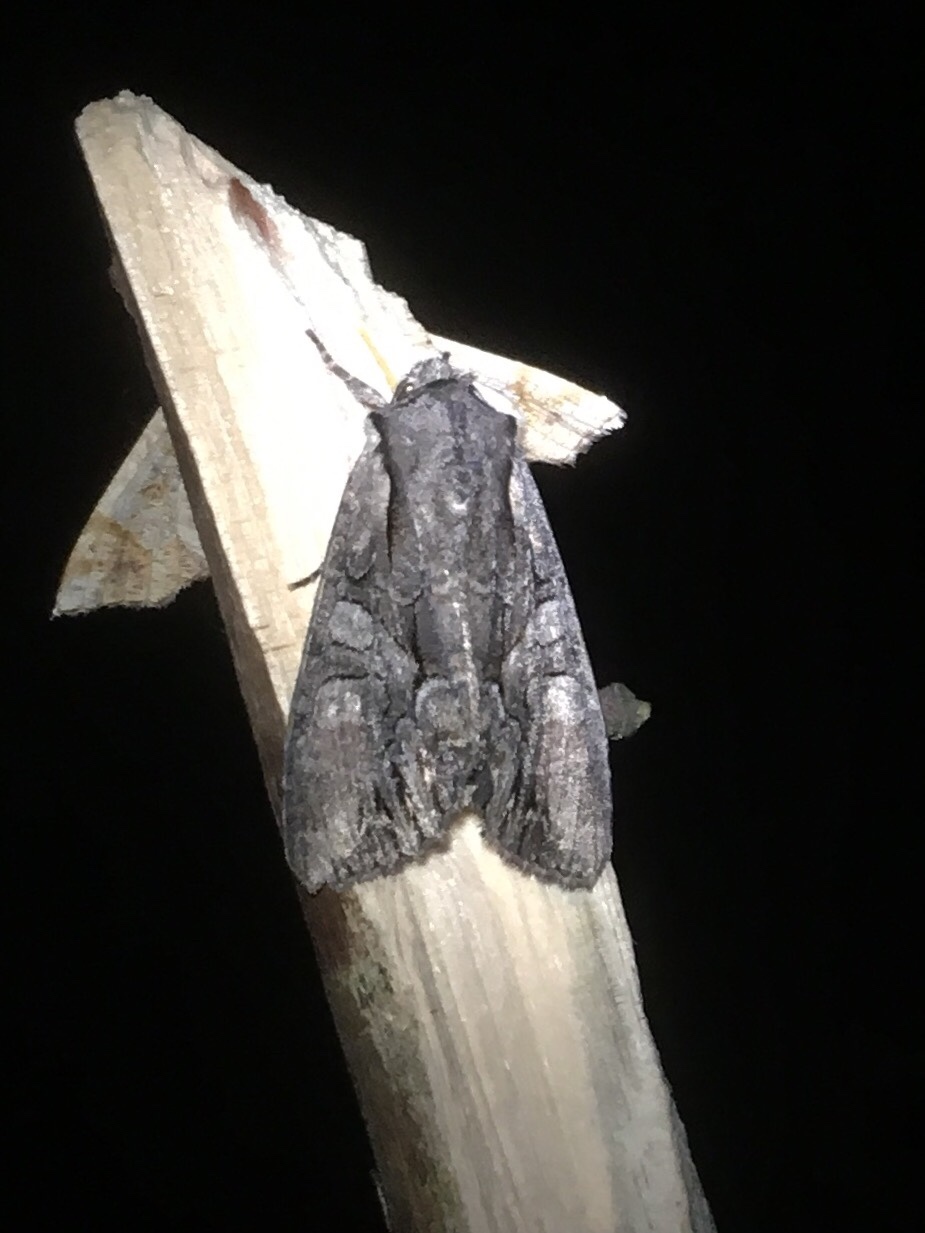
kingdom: Animalia
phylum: Arthropoda
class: Insecta
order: Lepidoptera
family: Noctuidae
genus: Lacanobia
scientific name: Lacanobia subjuncta
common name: Speckled cutworm moth
